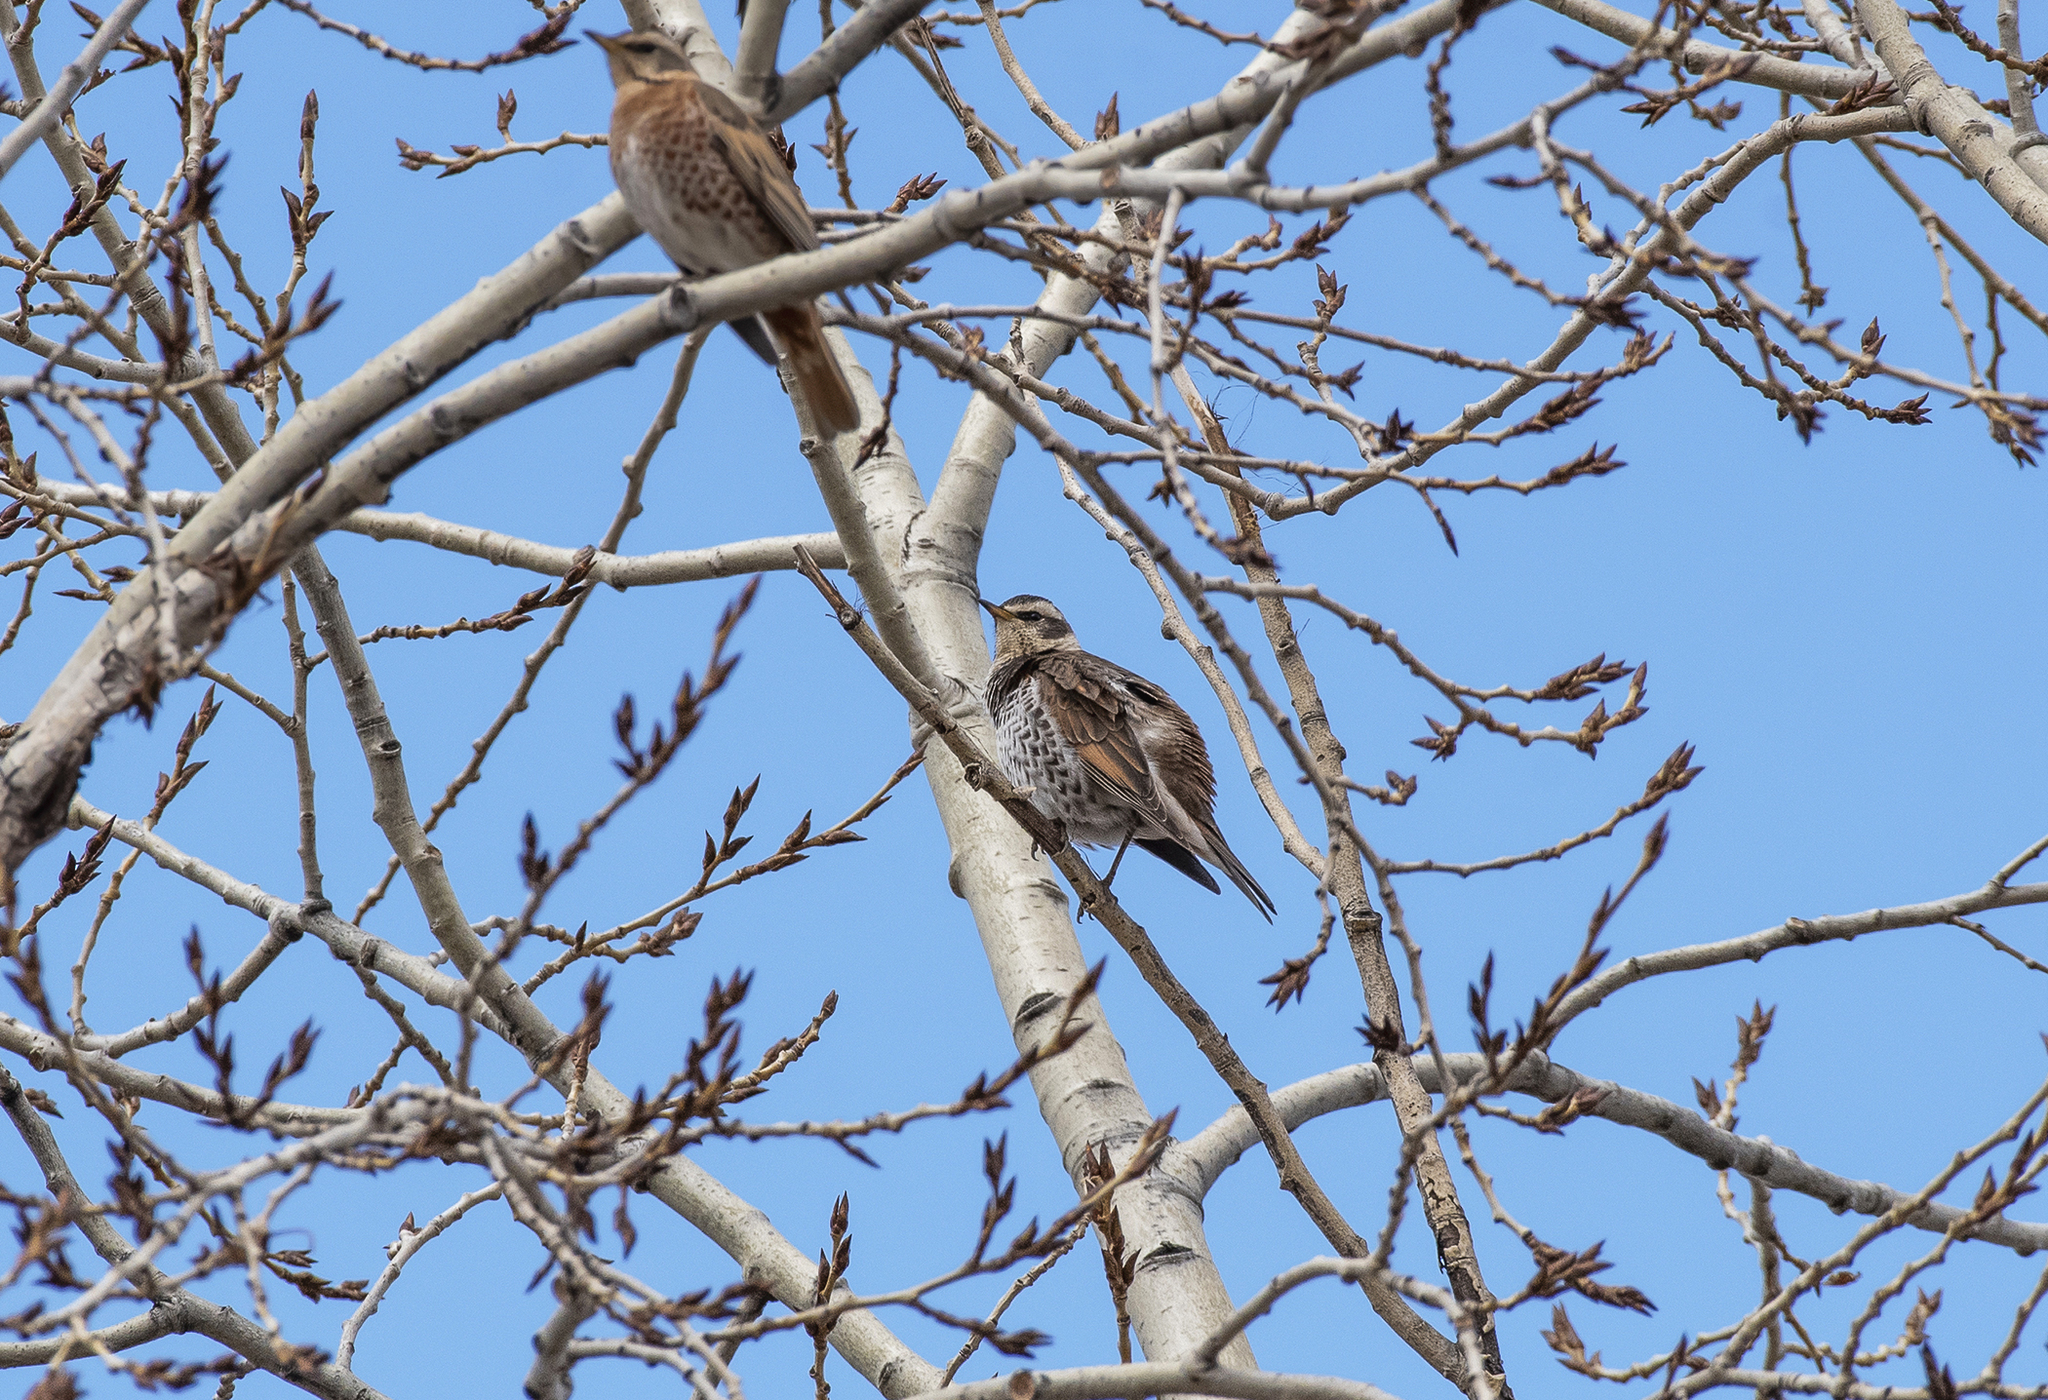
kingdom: Animalia
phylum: Chordata
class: Aves
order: Passeriformes
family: Turdidae
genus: Turdus
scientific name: Turdus eunomus
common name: Dusky thrush
